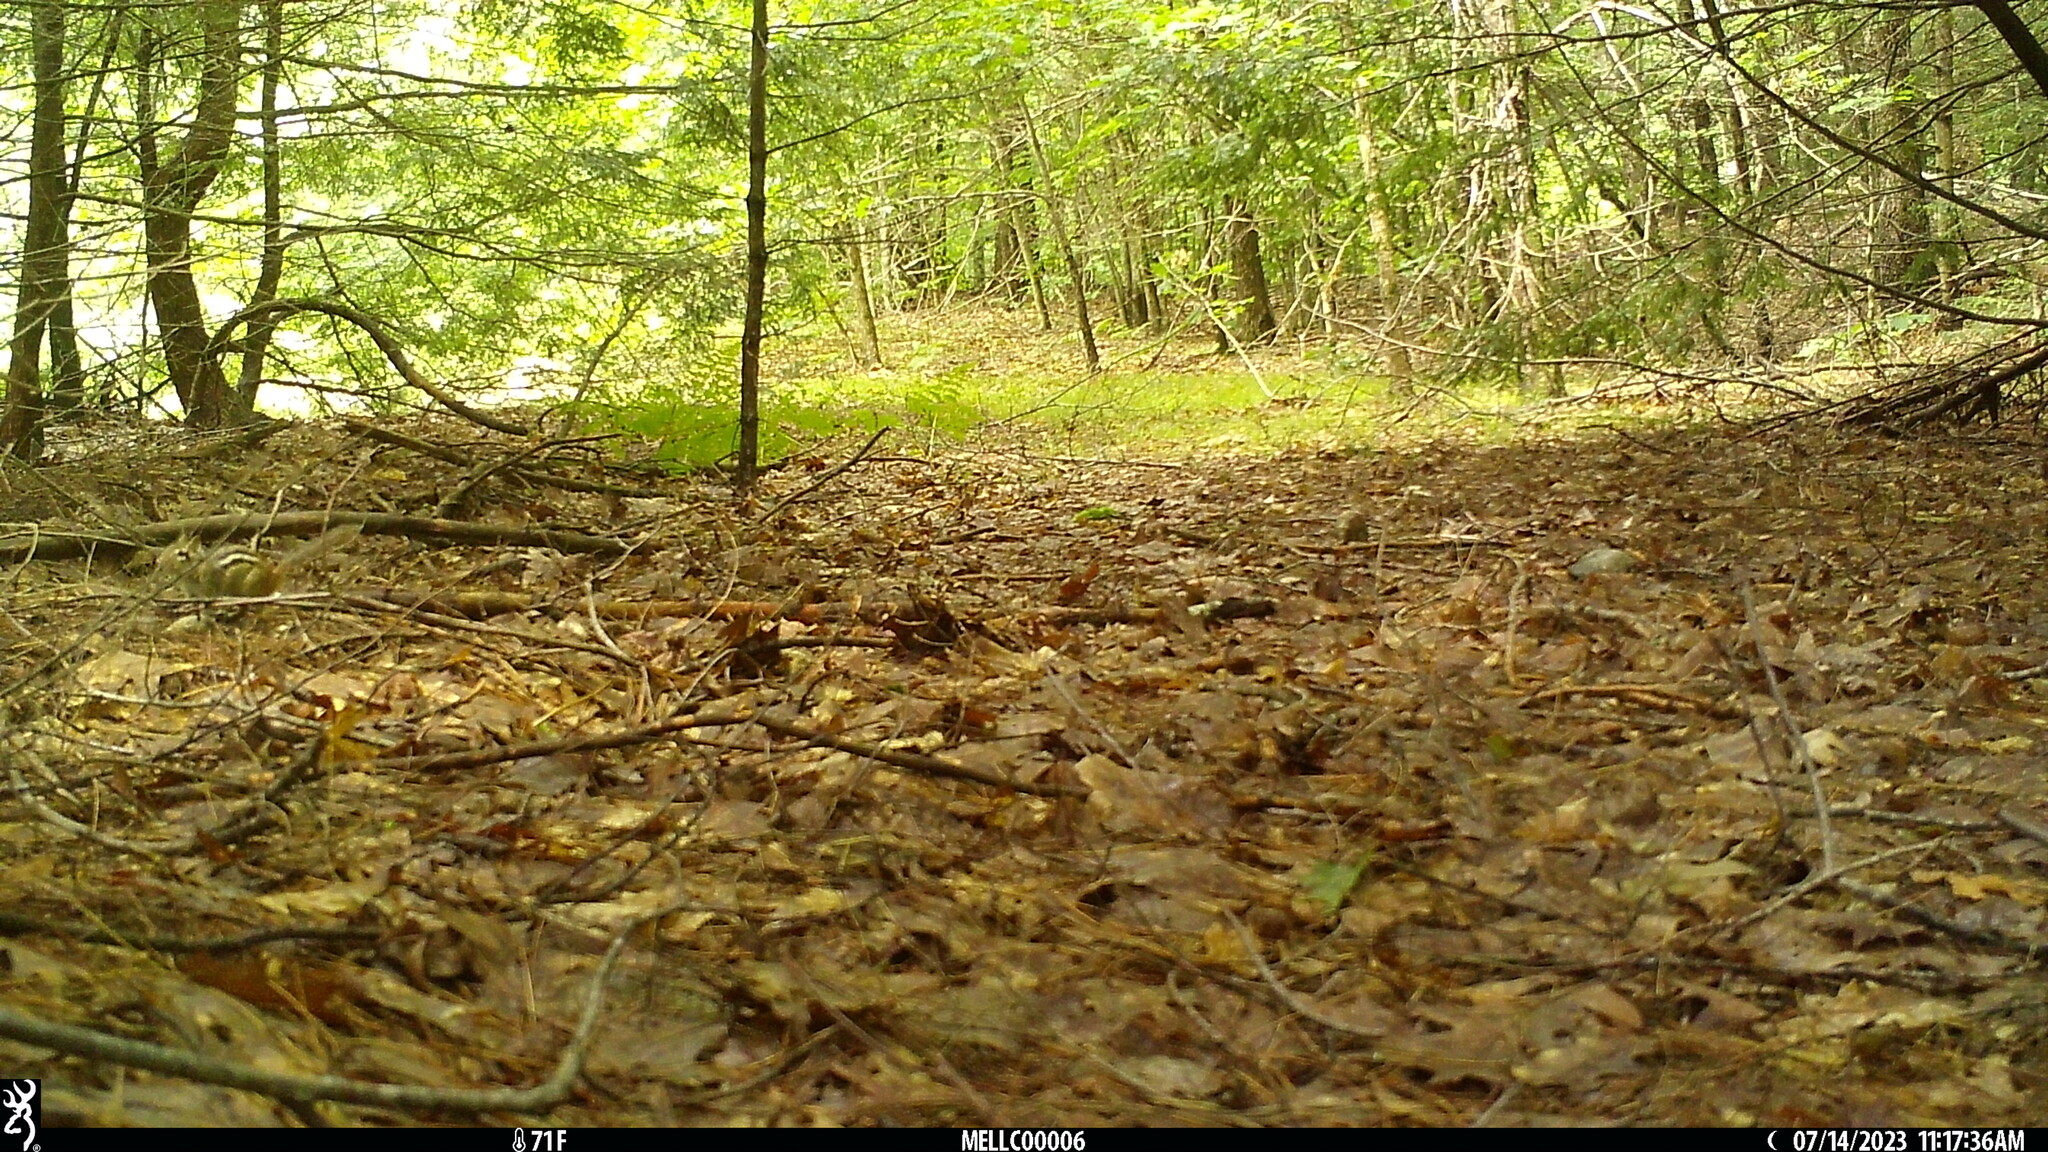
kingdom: Animalia
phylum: Chordata
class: Mammalia
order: Rodentia
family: Sciuridae
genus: Tamias
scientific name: Tamias striatus
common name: Eastern chipmunk
